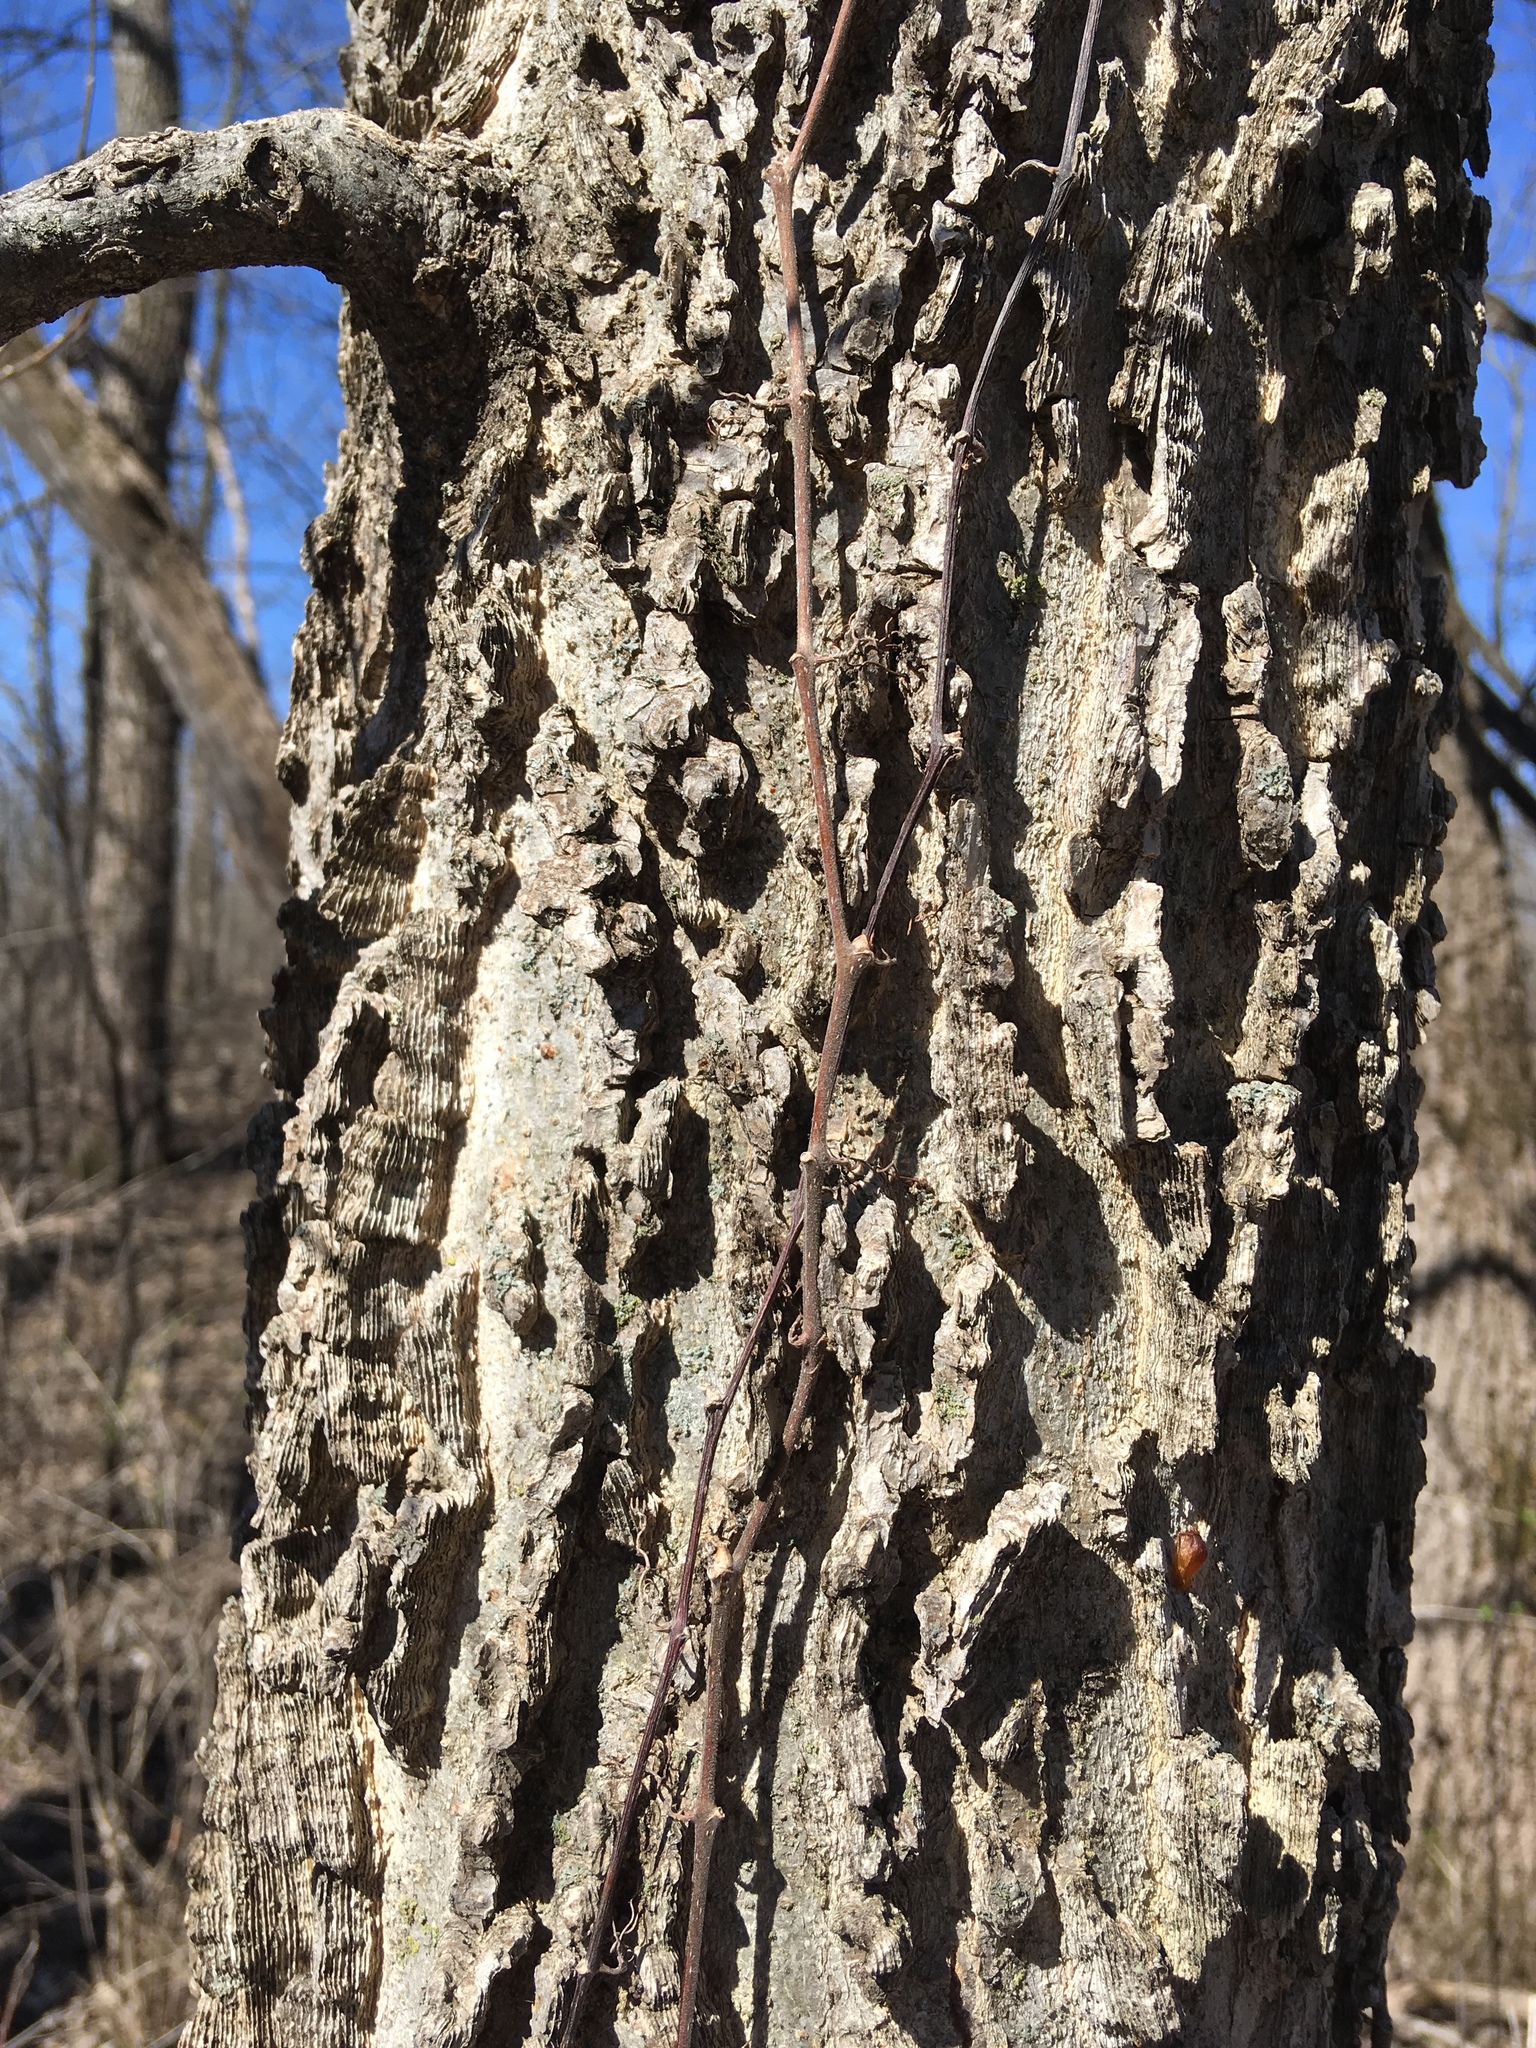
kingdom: Plantae
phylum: Tracheophyta
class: Magnoliopsida
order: Rosales
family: Cannabaceae
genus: Celtis
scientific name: Celtis occidentalis
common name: Common hackberry
